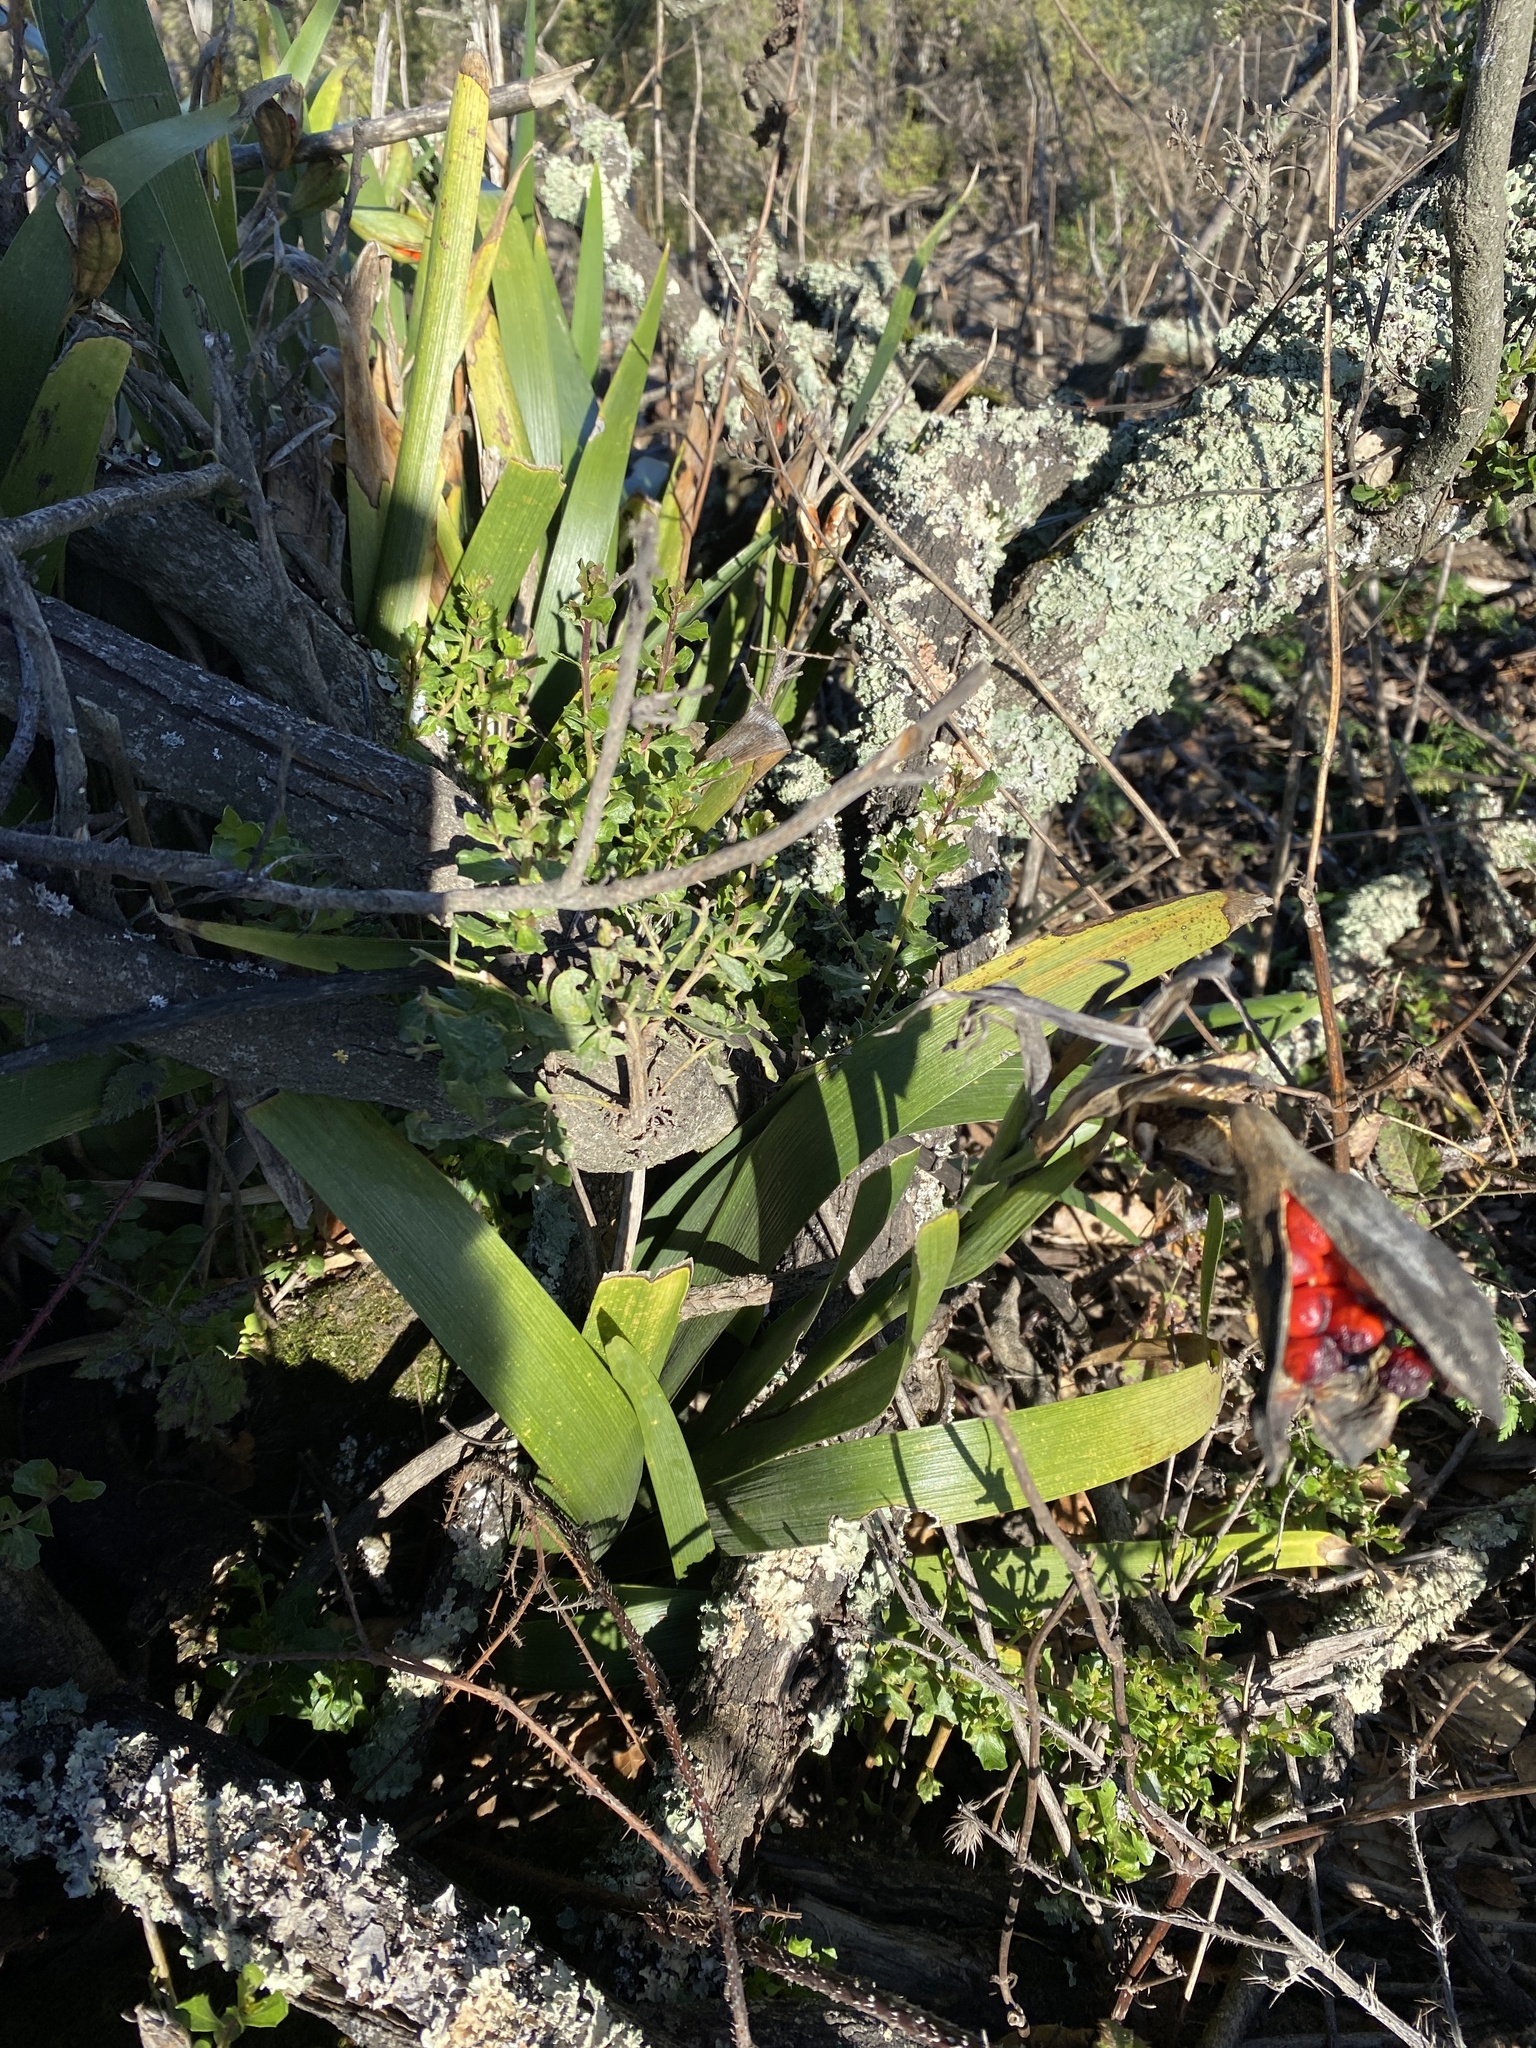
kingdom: Plantae
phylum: Tracheophyta
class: Liliopsida
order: Asparagales
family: Iridaceae
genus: Iris
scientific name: Iris foetidissima
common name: Stinking iris
